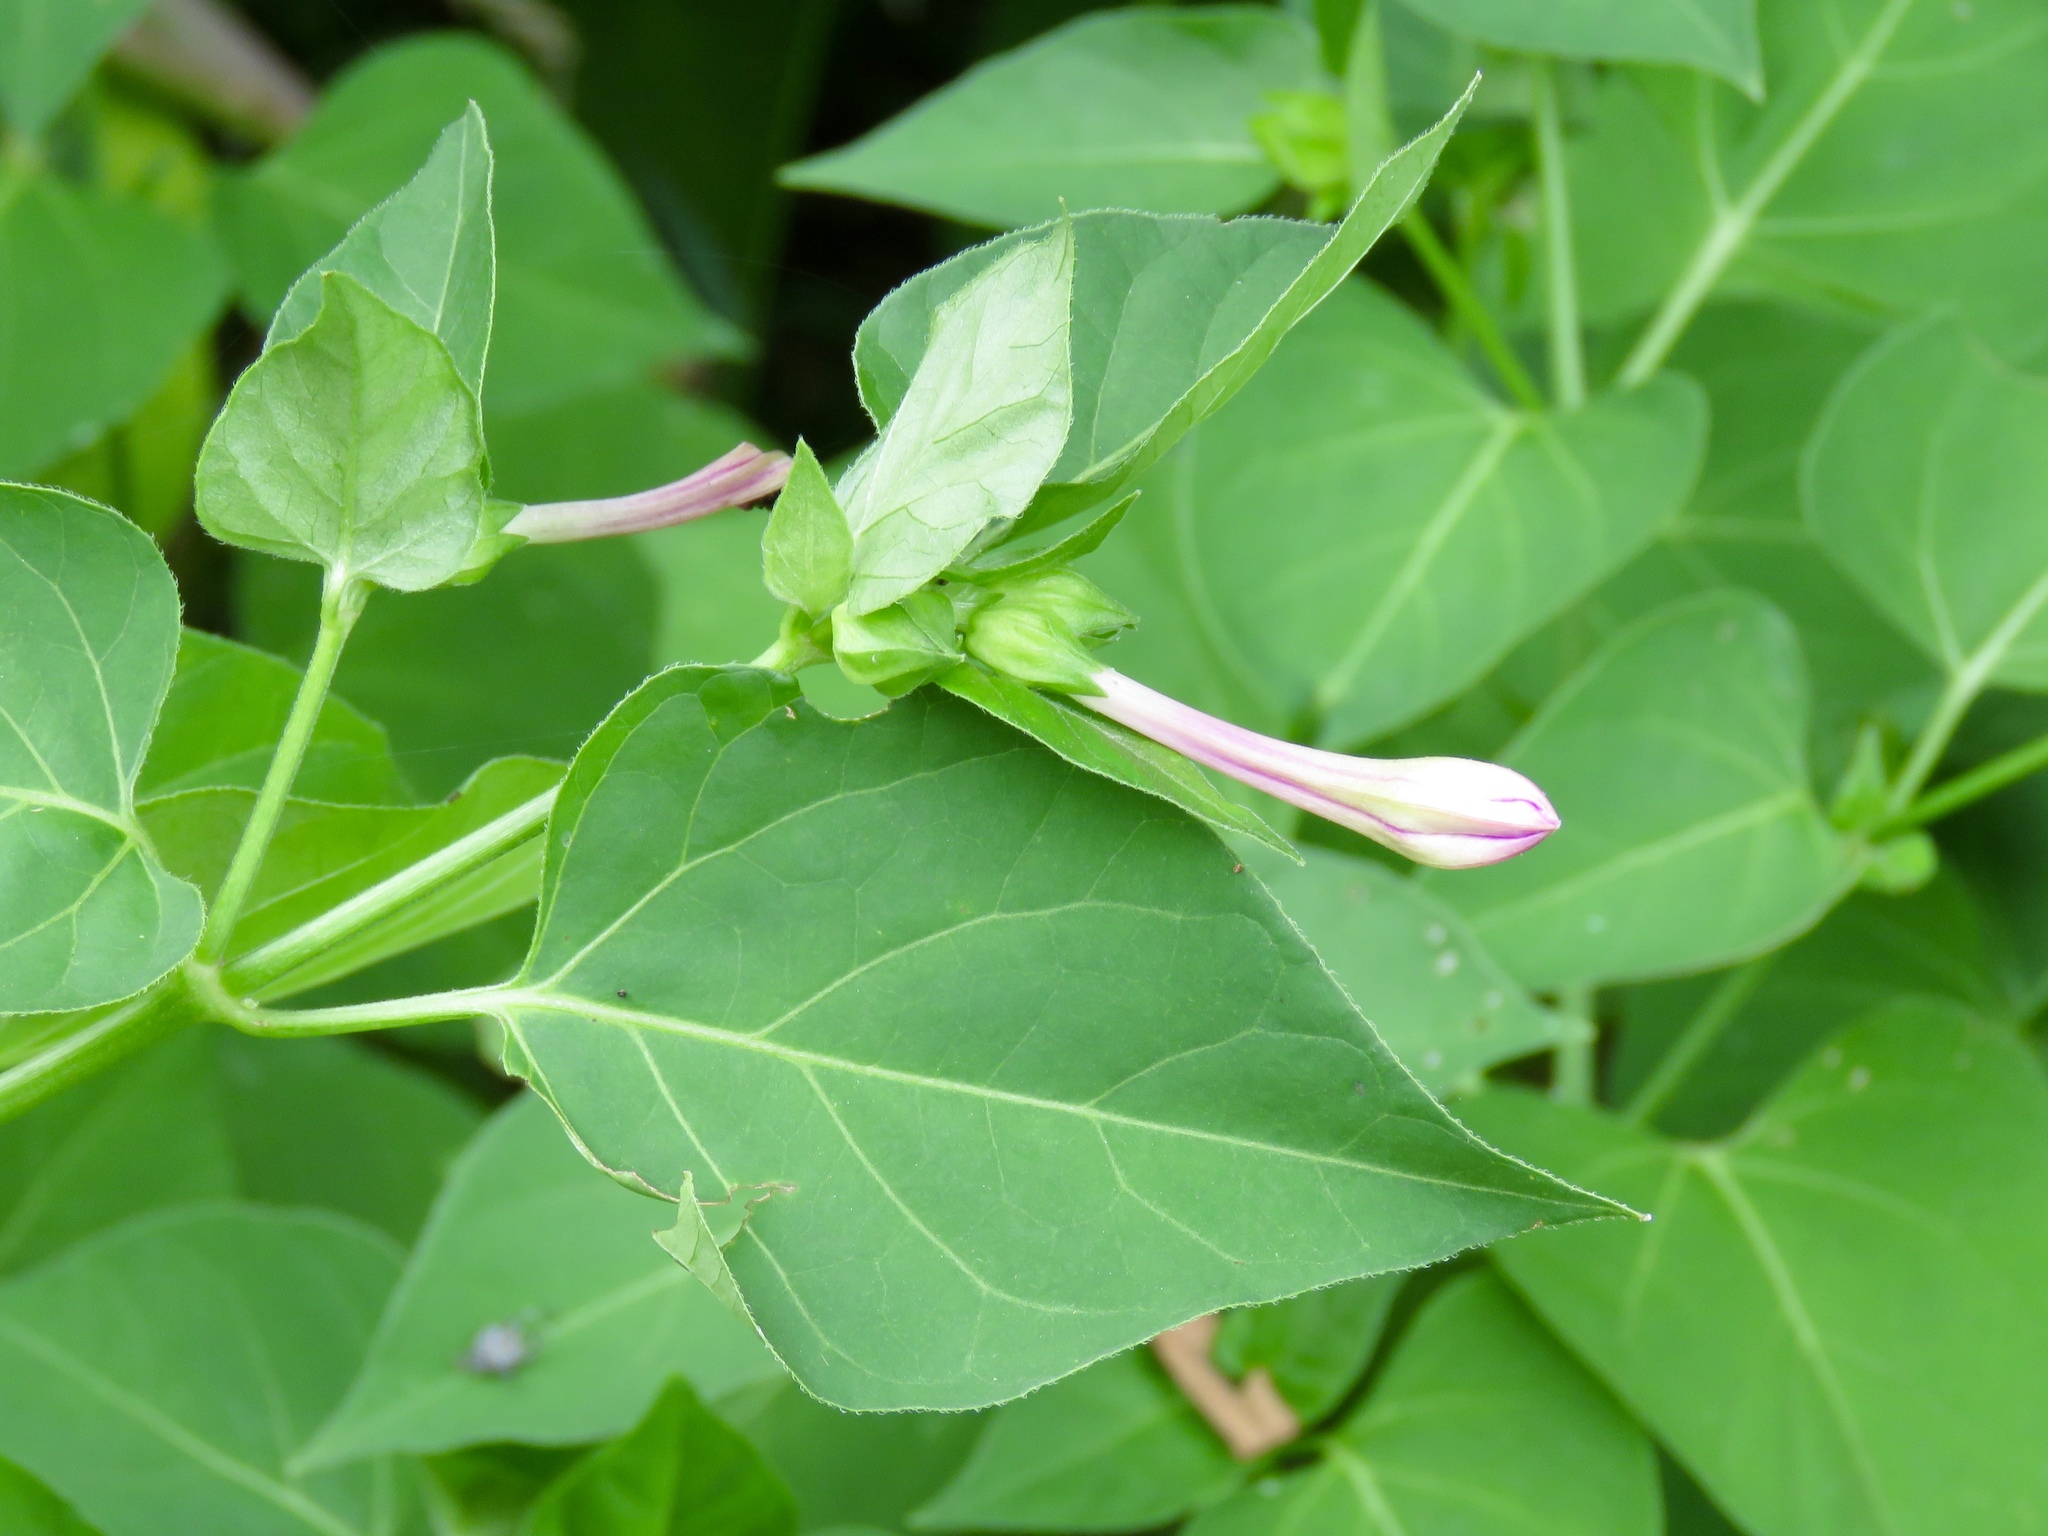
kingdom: Plantae
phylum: Tracheophyta
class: Magnoliopsida
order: Caryophyllales
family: Nyctaginaceae
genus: Mirabilis
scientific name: Mirabilis jalapa
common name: Marvel-of-peru
